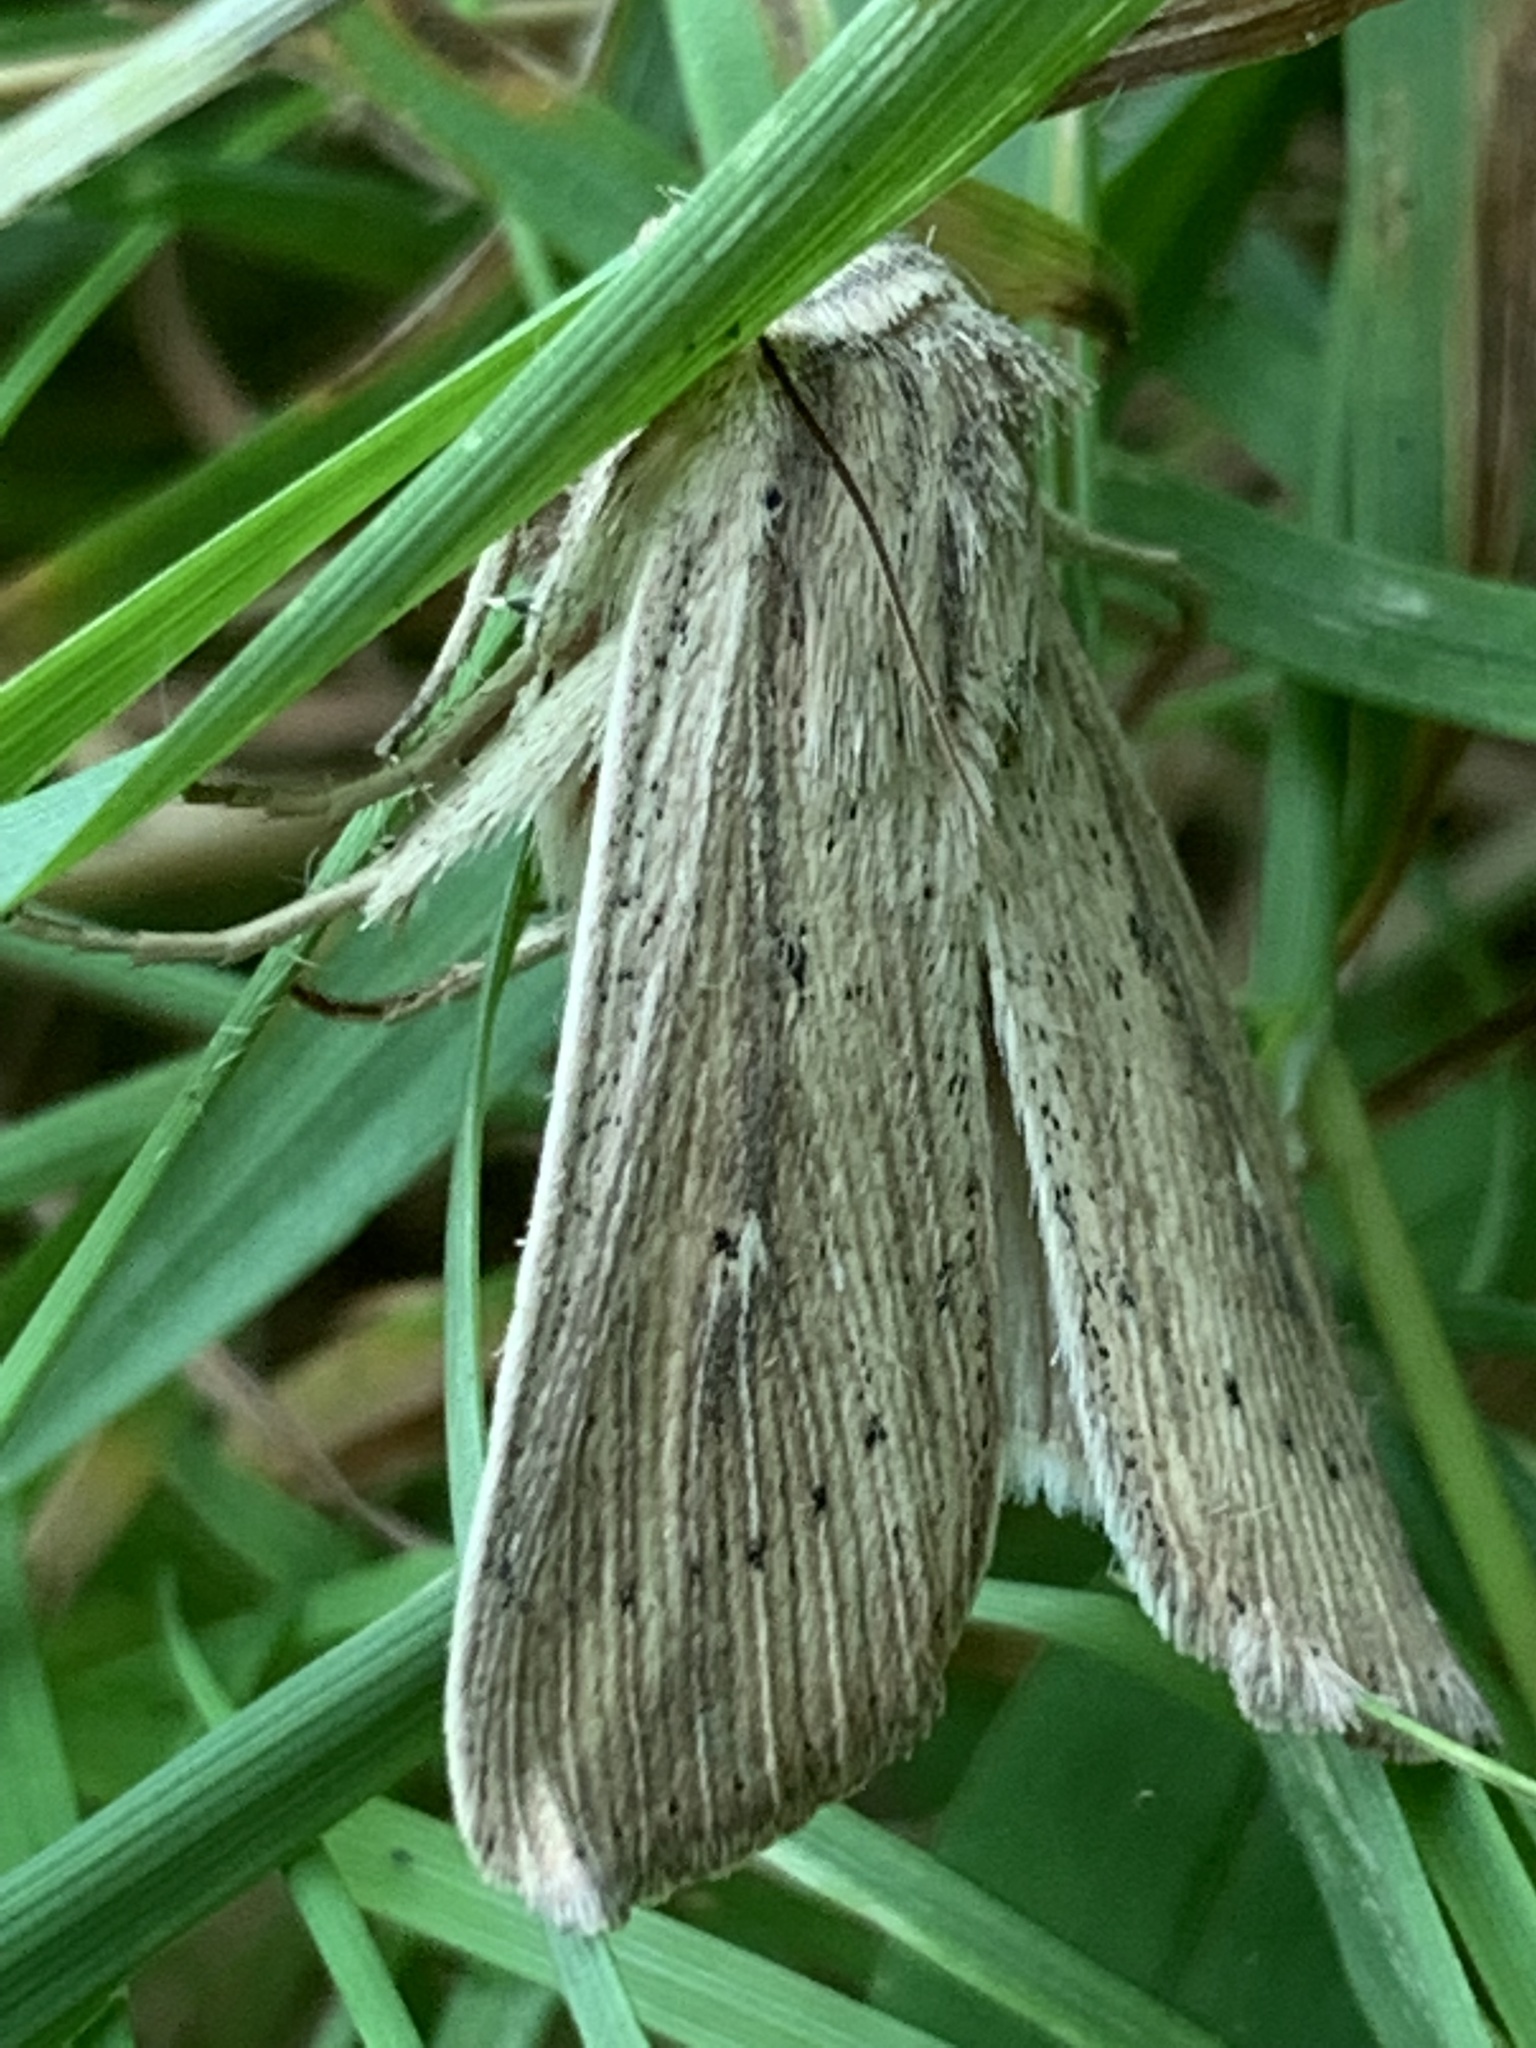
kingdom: Animalia
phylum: Arthropoda
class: Insecta
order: Lepidoptera
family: Noctuidae
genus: Leucania
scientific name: Leucania linda
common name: Linda's wainscot
